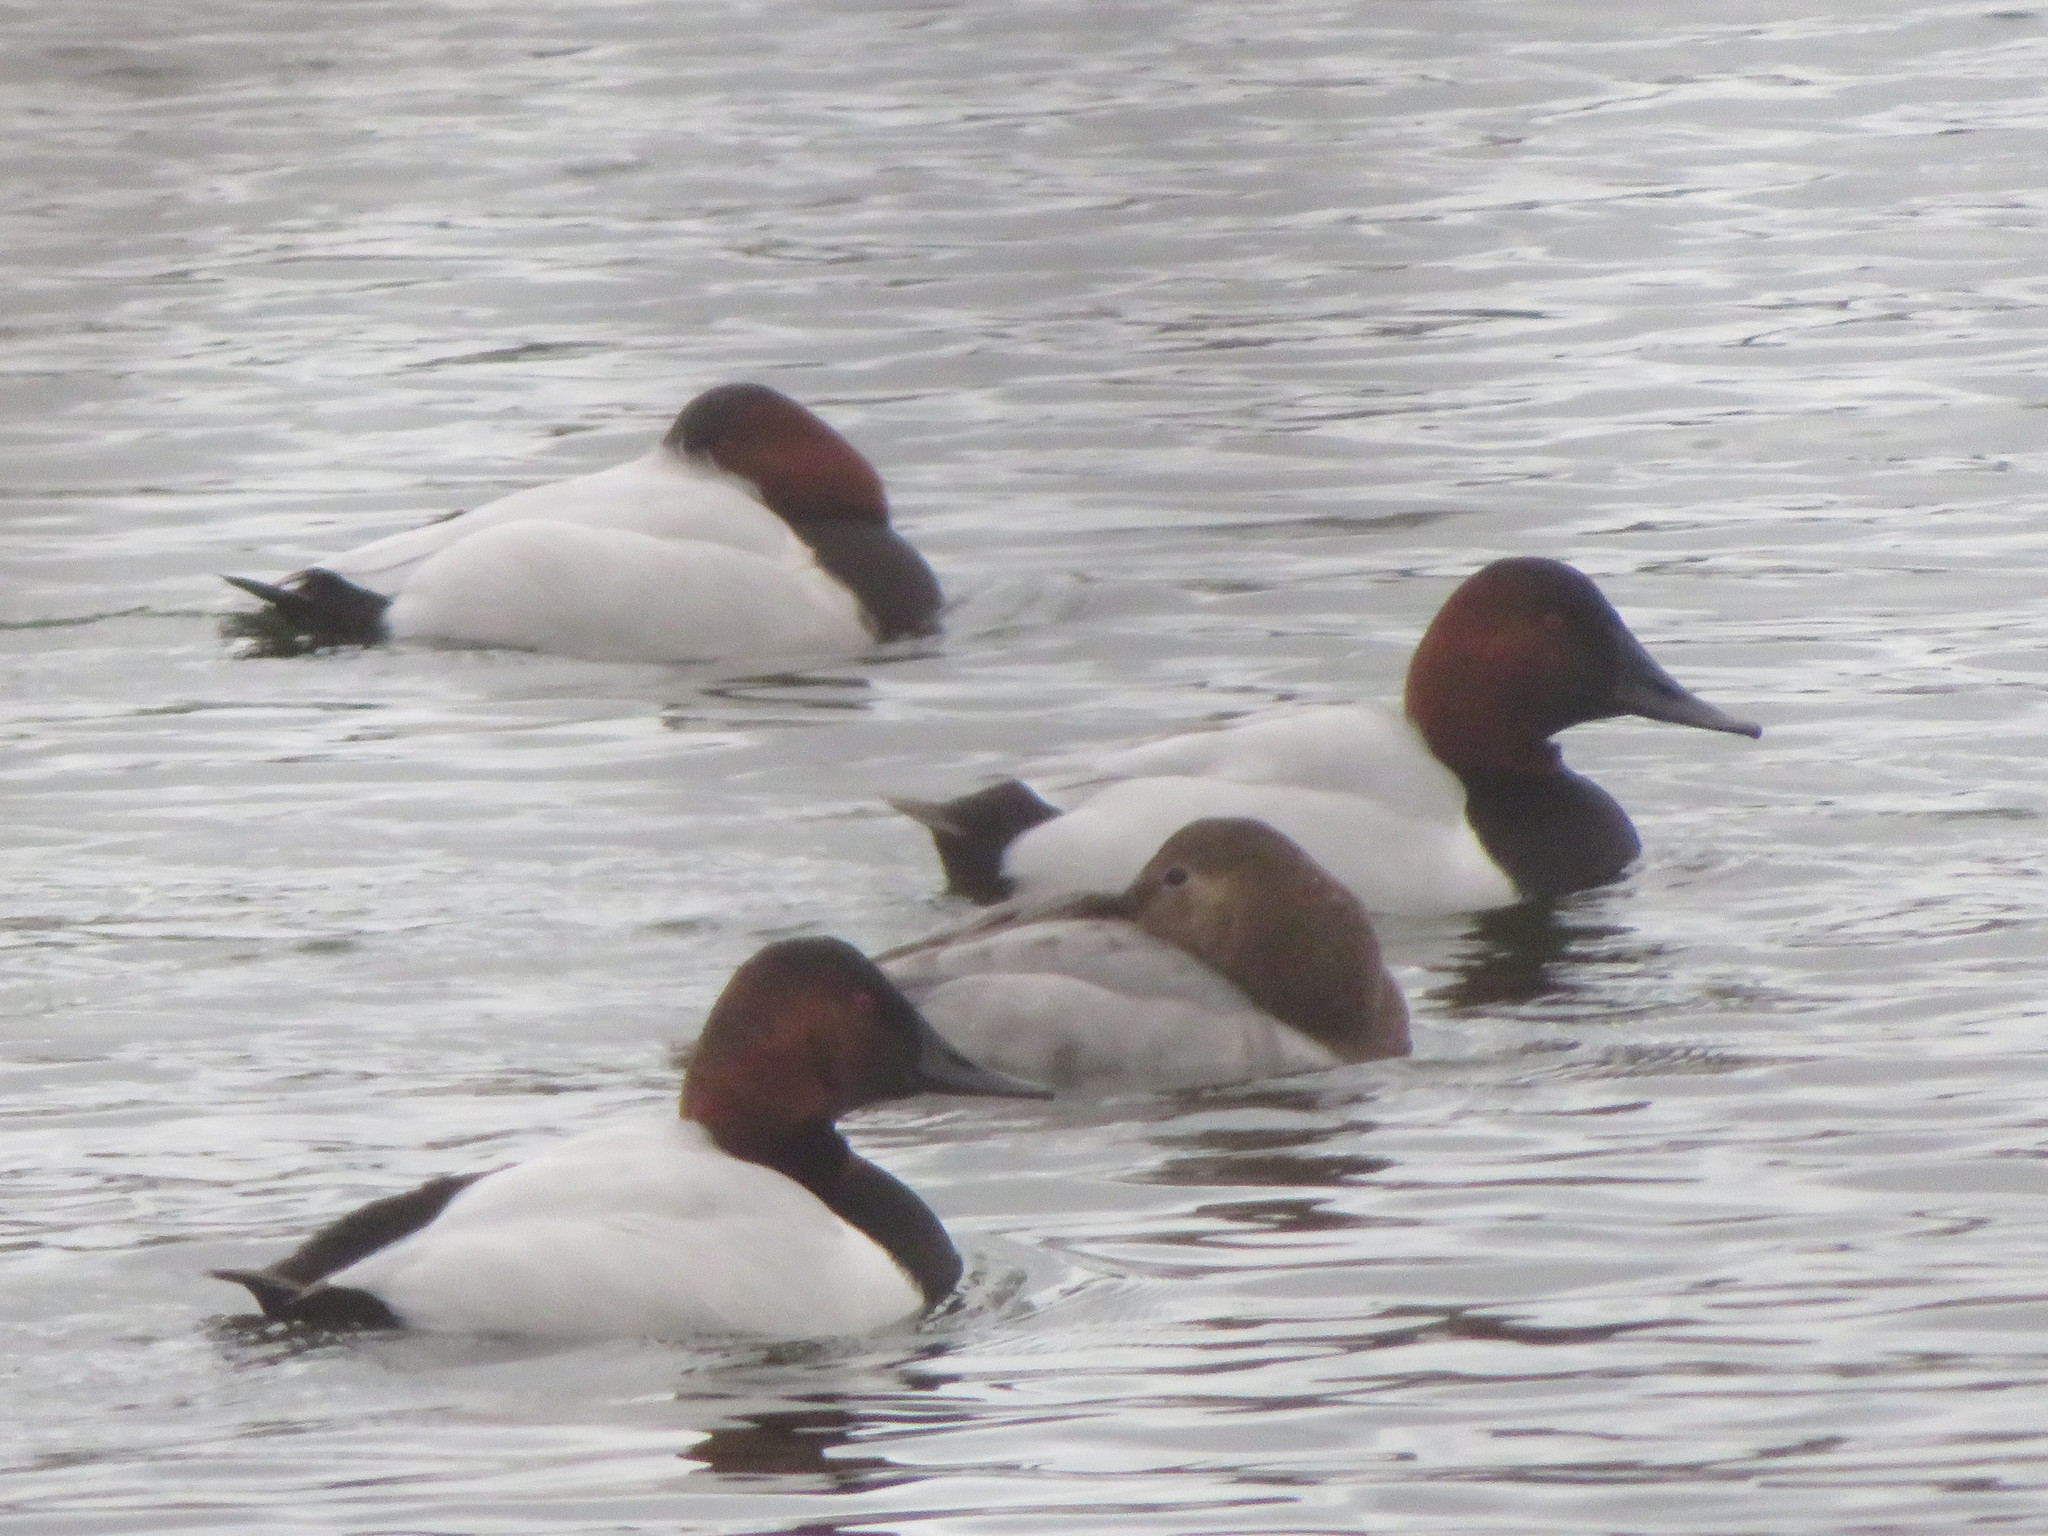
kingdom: Animalia
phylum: Chordata
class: Aves
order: Anseriformes
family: Anatidae
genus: Aythya
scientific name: Aythya valisineria
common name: Canvasback
